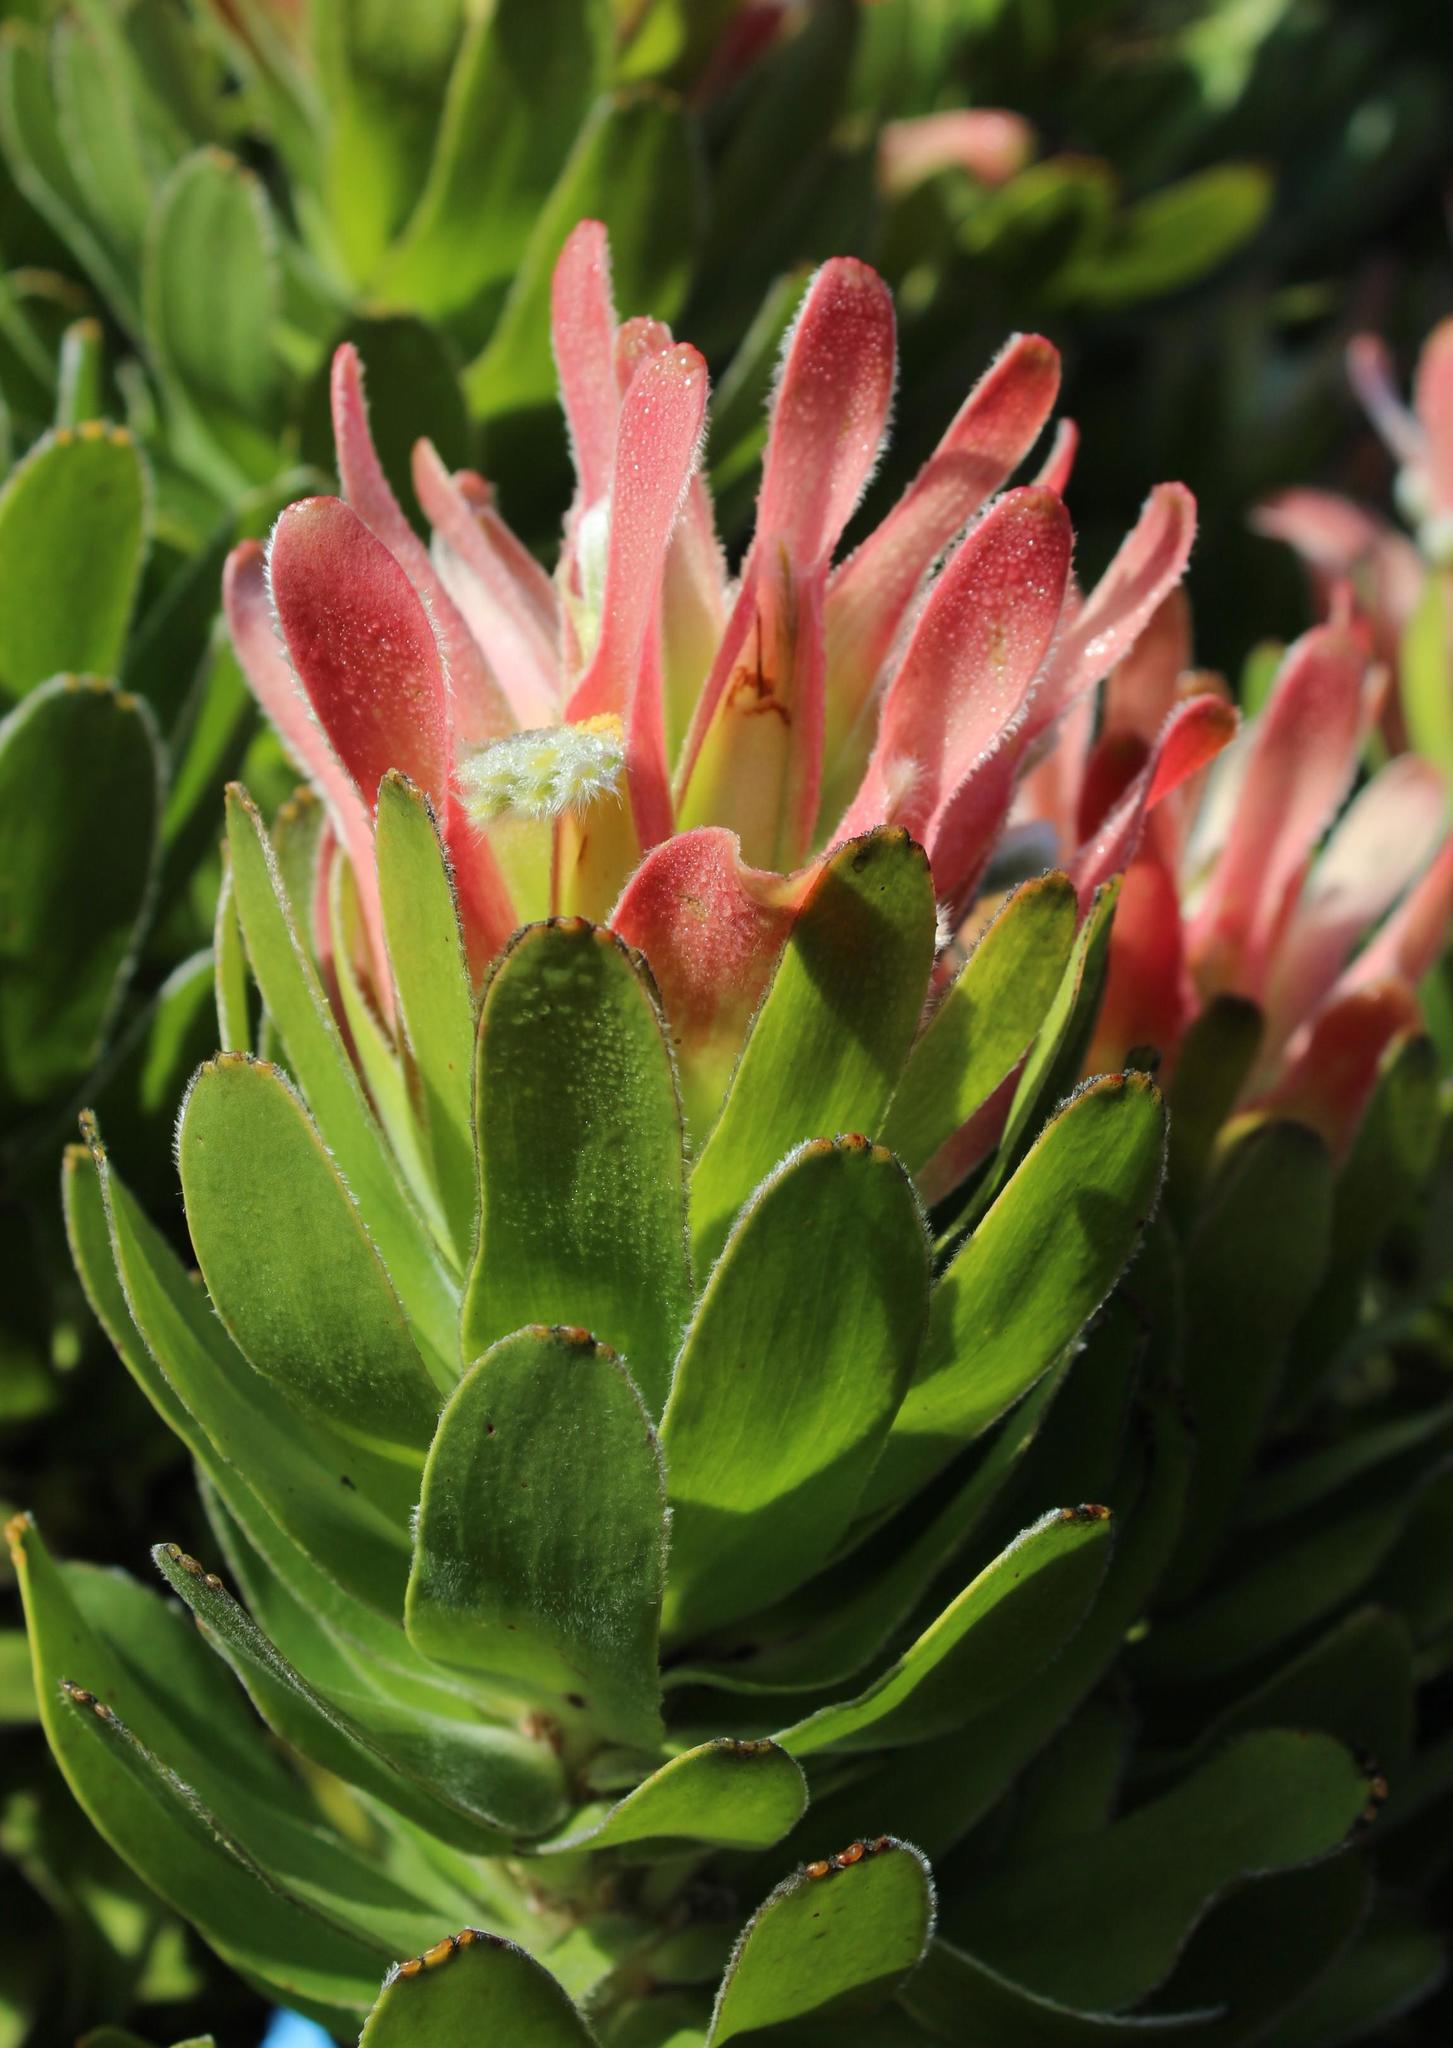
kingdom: Plantae
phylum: Tracheophyta
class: Magnoliopsida
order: Proteales
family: Proteaceae
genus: Mimetes
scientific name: Mimetes fimbriifolius
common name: Fringed bottlebrush
